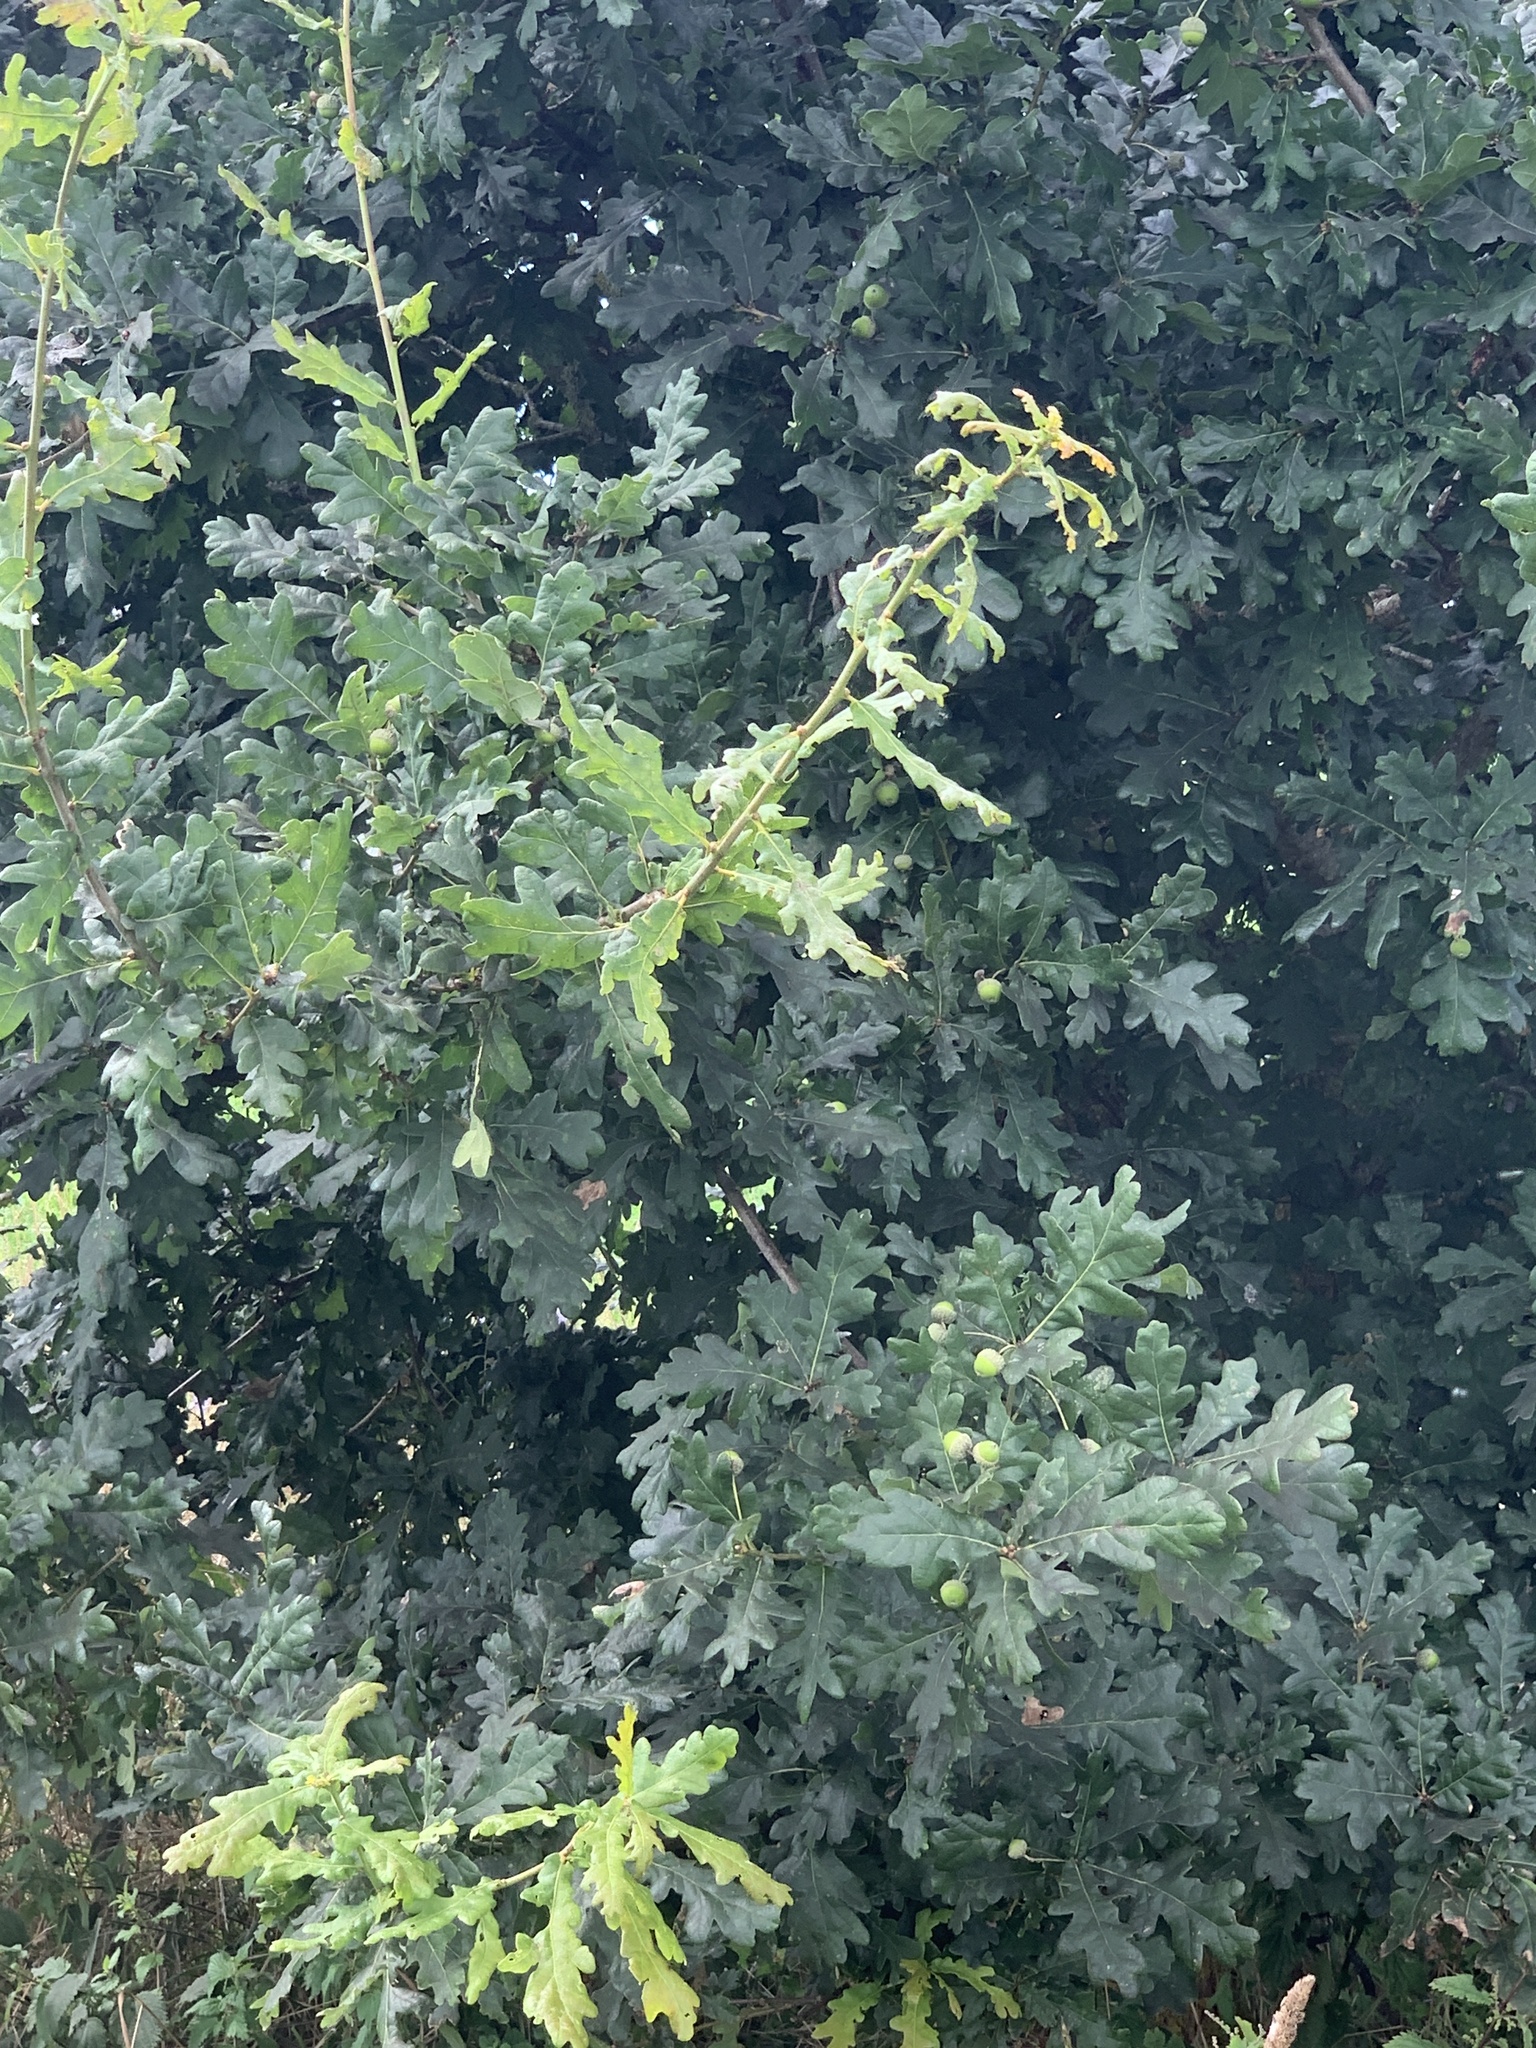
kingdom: Plantae
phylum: Tracheophyta
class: Magnoliopsida
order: Fagales
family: Fagaceae
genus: Quercus
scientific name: Quercus robur
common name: Pedunculate oak
